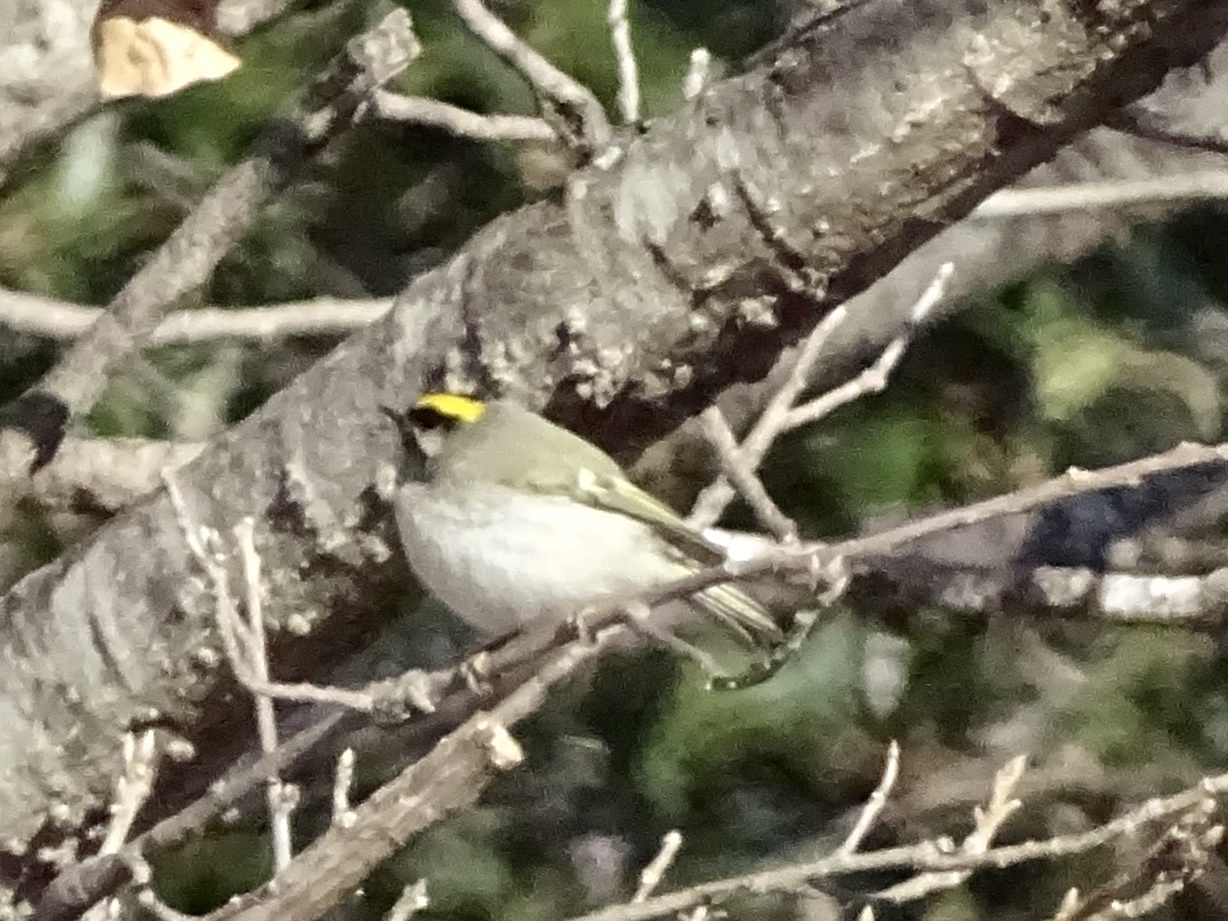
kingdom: Animalia
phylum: Chordata
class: Aves
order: Passeriformes
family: Regulidae
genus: Regulus
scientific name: Regulus satrapa
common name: Golden-crowned kinglet
